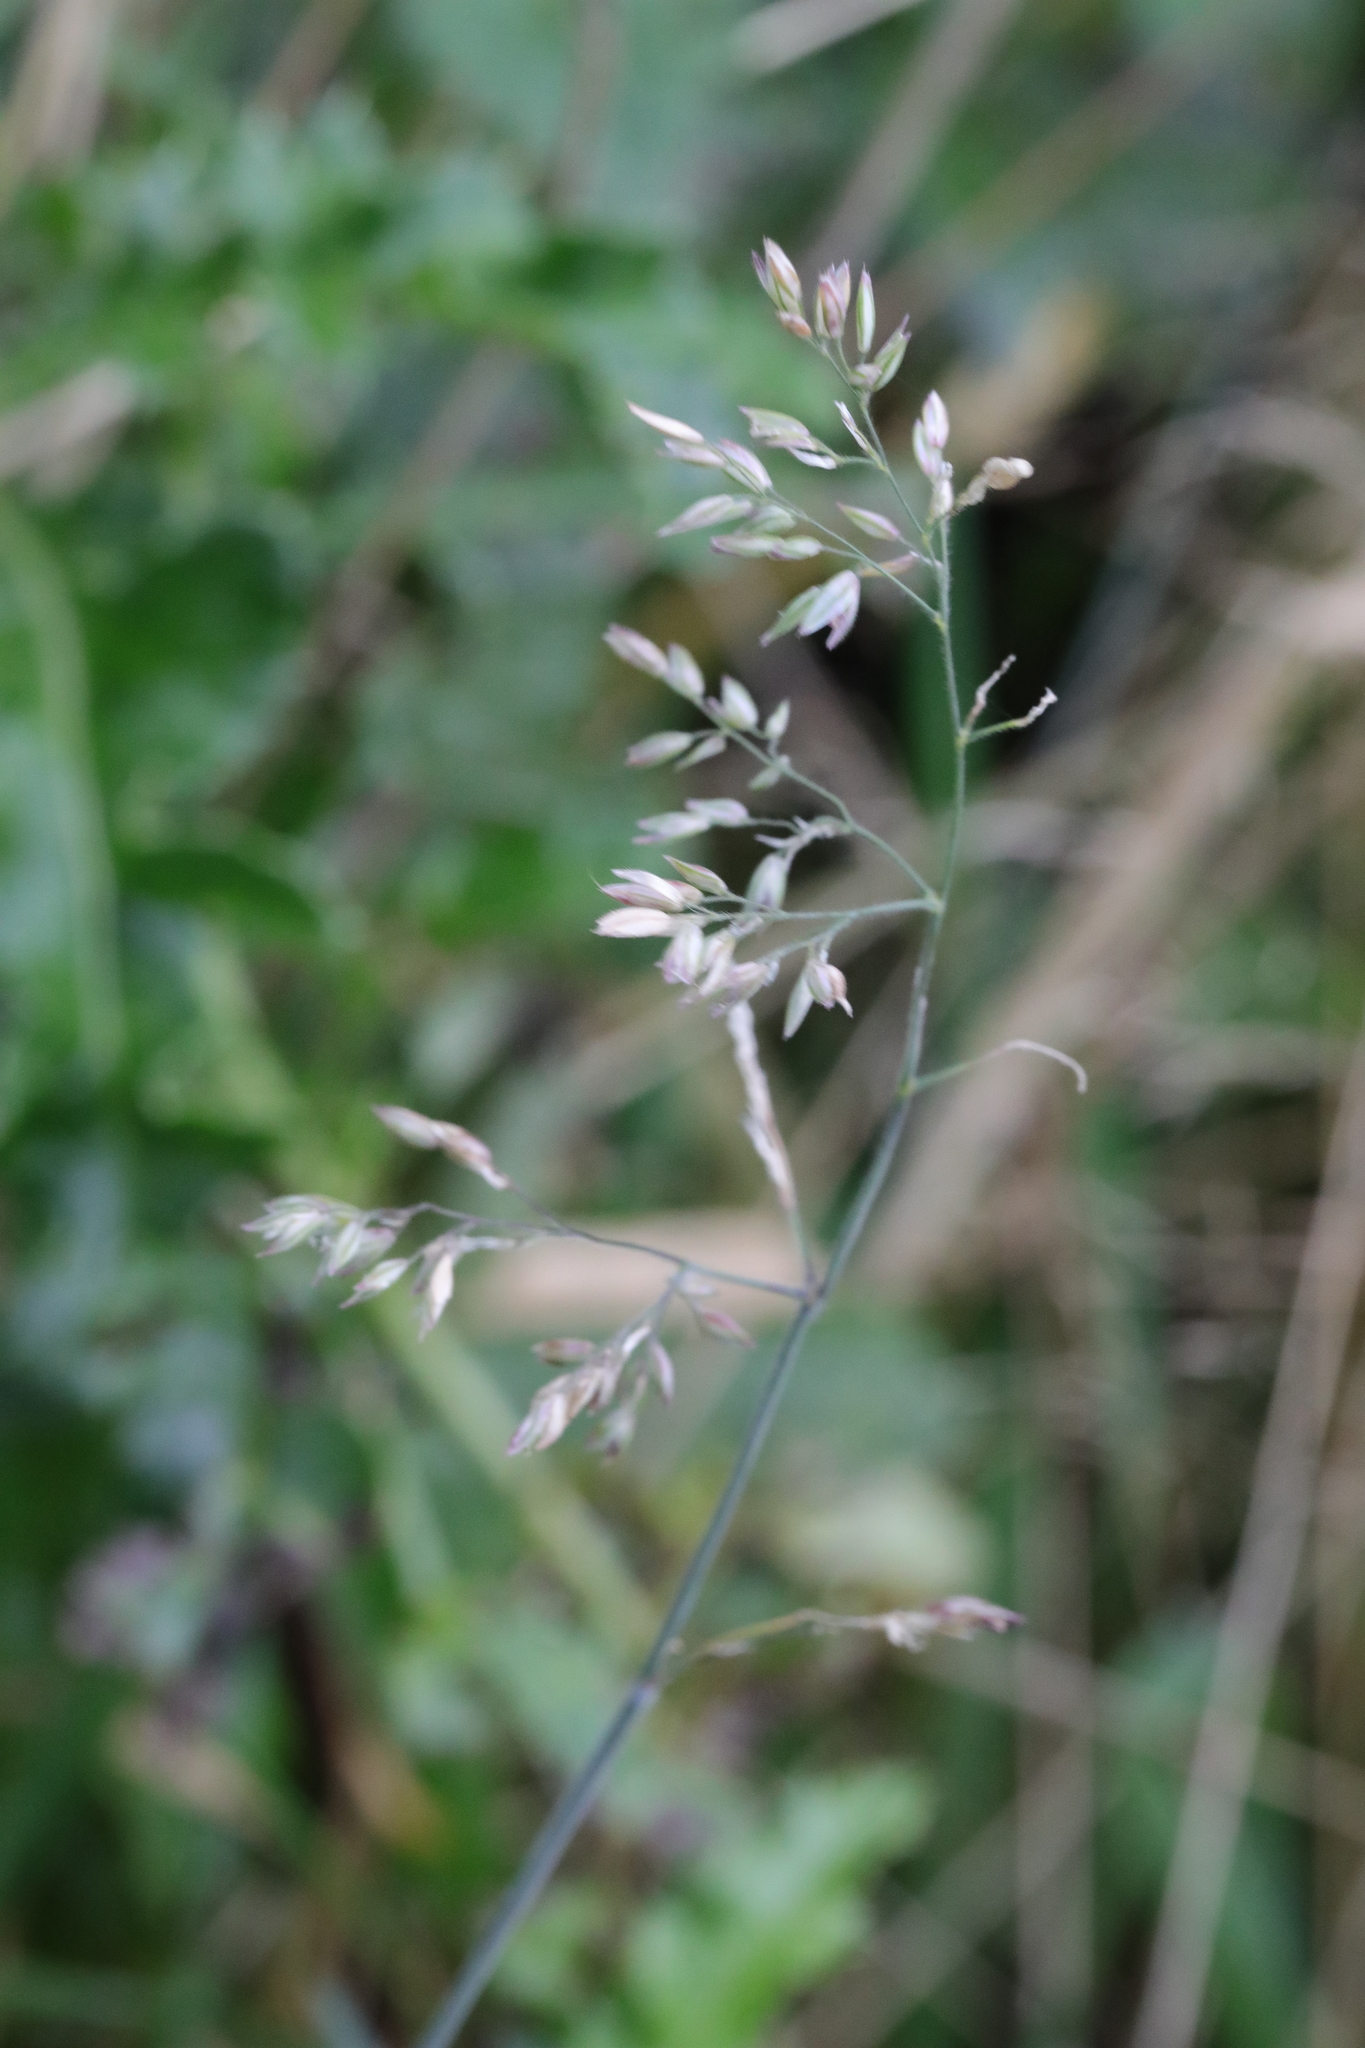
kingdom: Plantae
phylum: Tracheophyta
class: Liliopsida
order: Poales
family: Poaceae
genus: Holcus
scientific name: Holcus lanatus
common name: Yorkshire-fog
